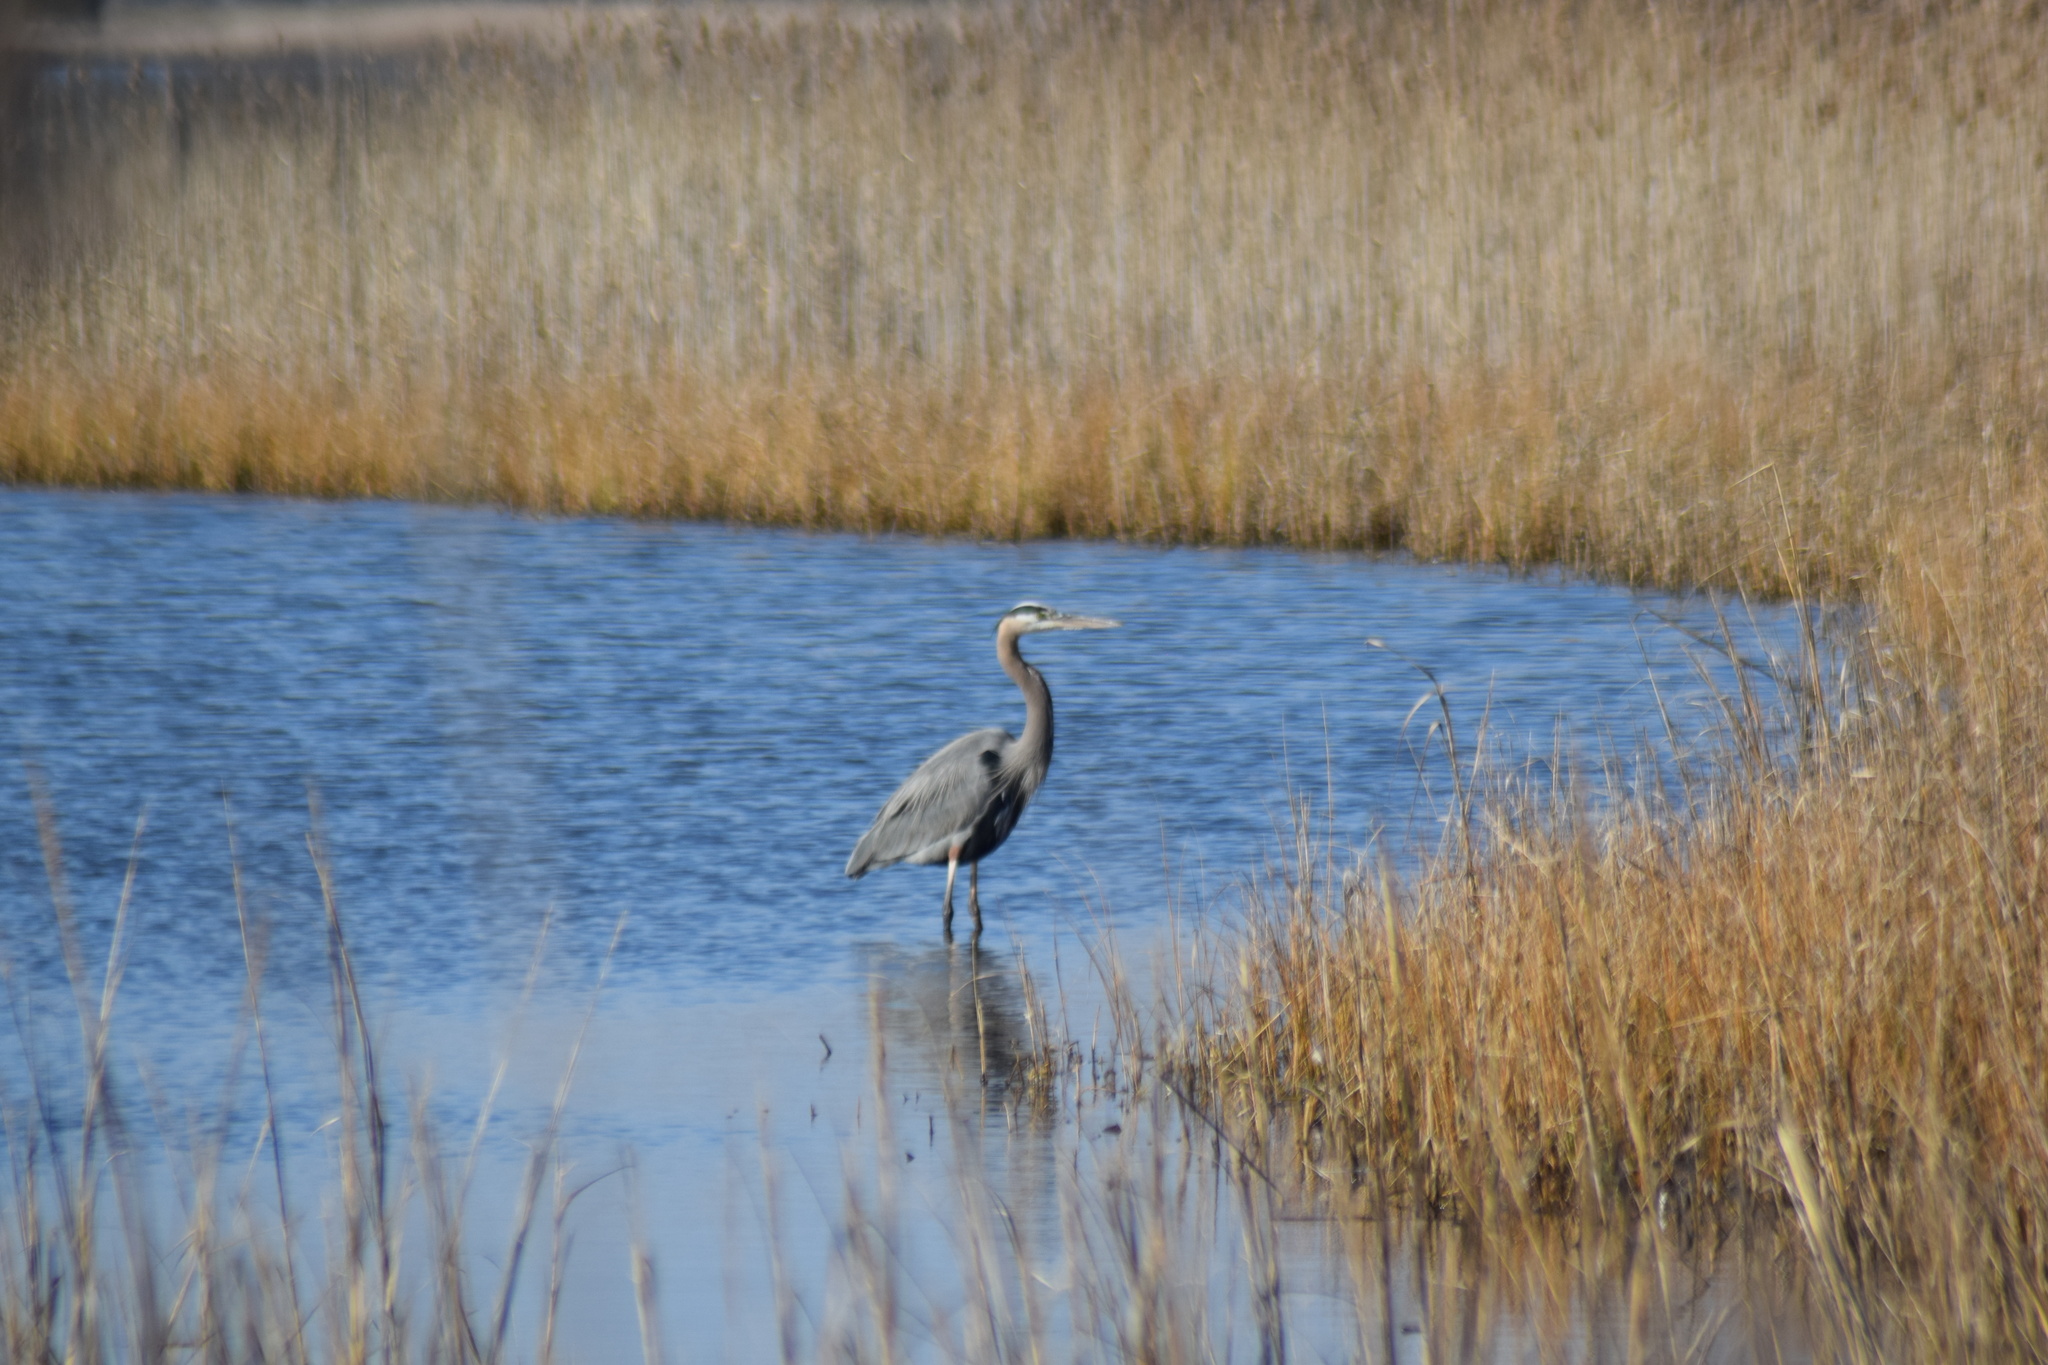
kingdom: Animalia
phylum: Chordata
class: Aves
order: Pelecaniformes
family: Ardeidae
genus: Ardea
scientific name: Ardea herodias
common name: Great blue heron
